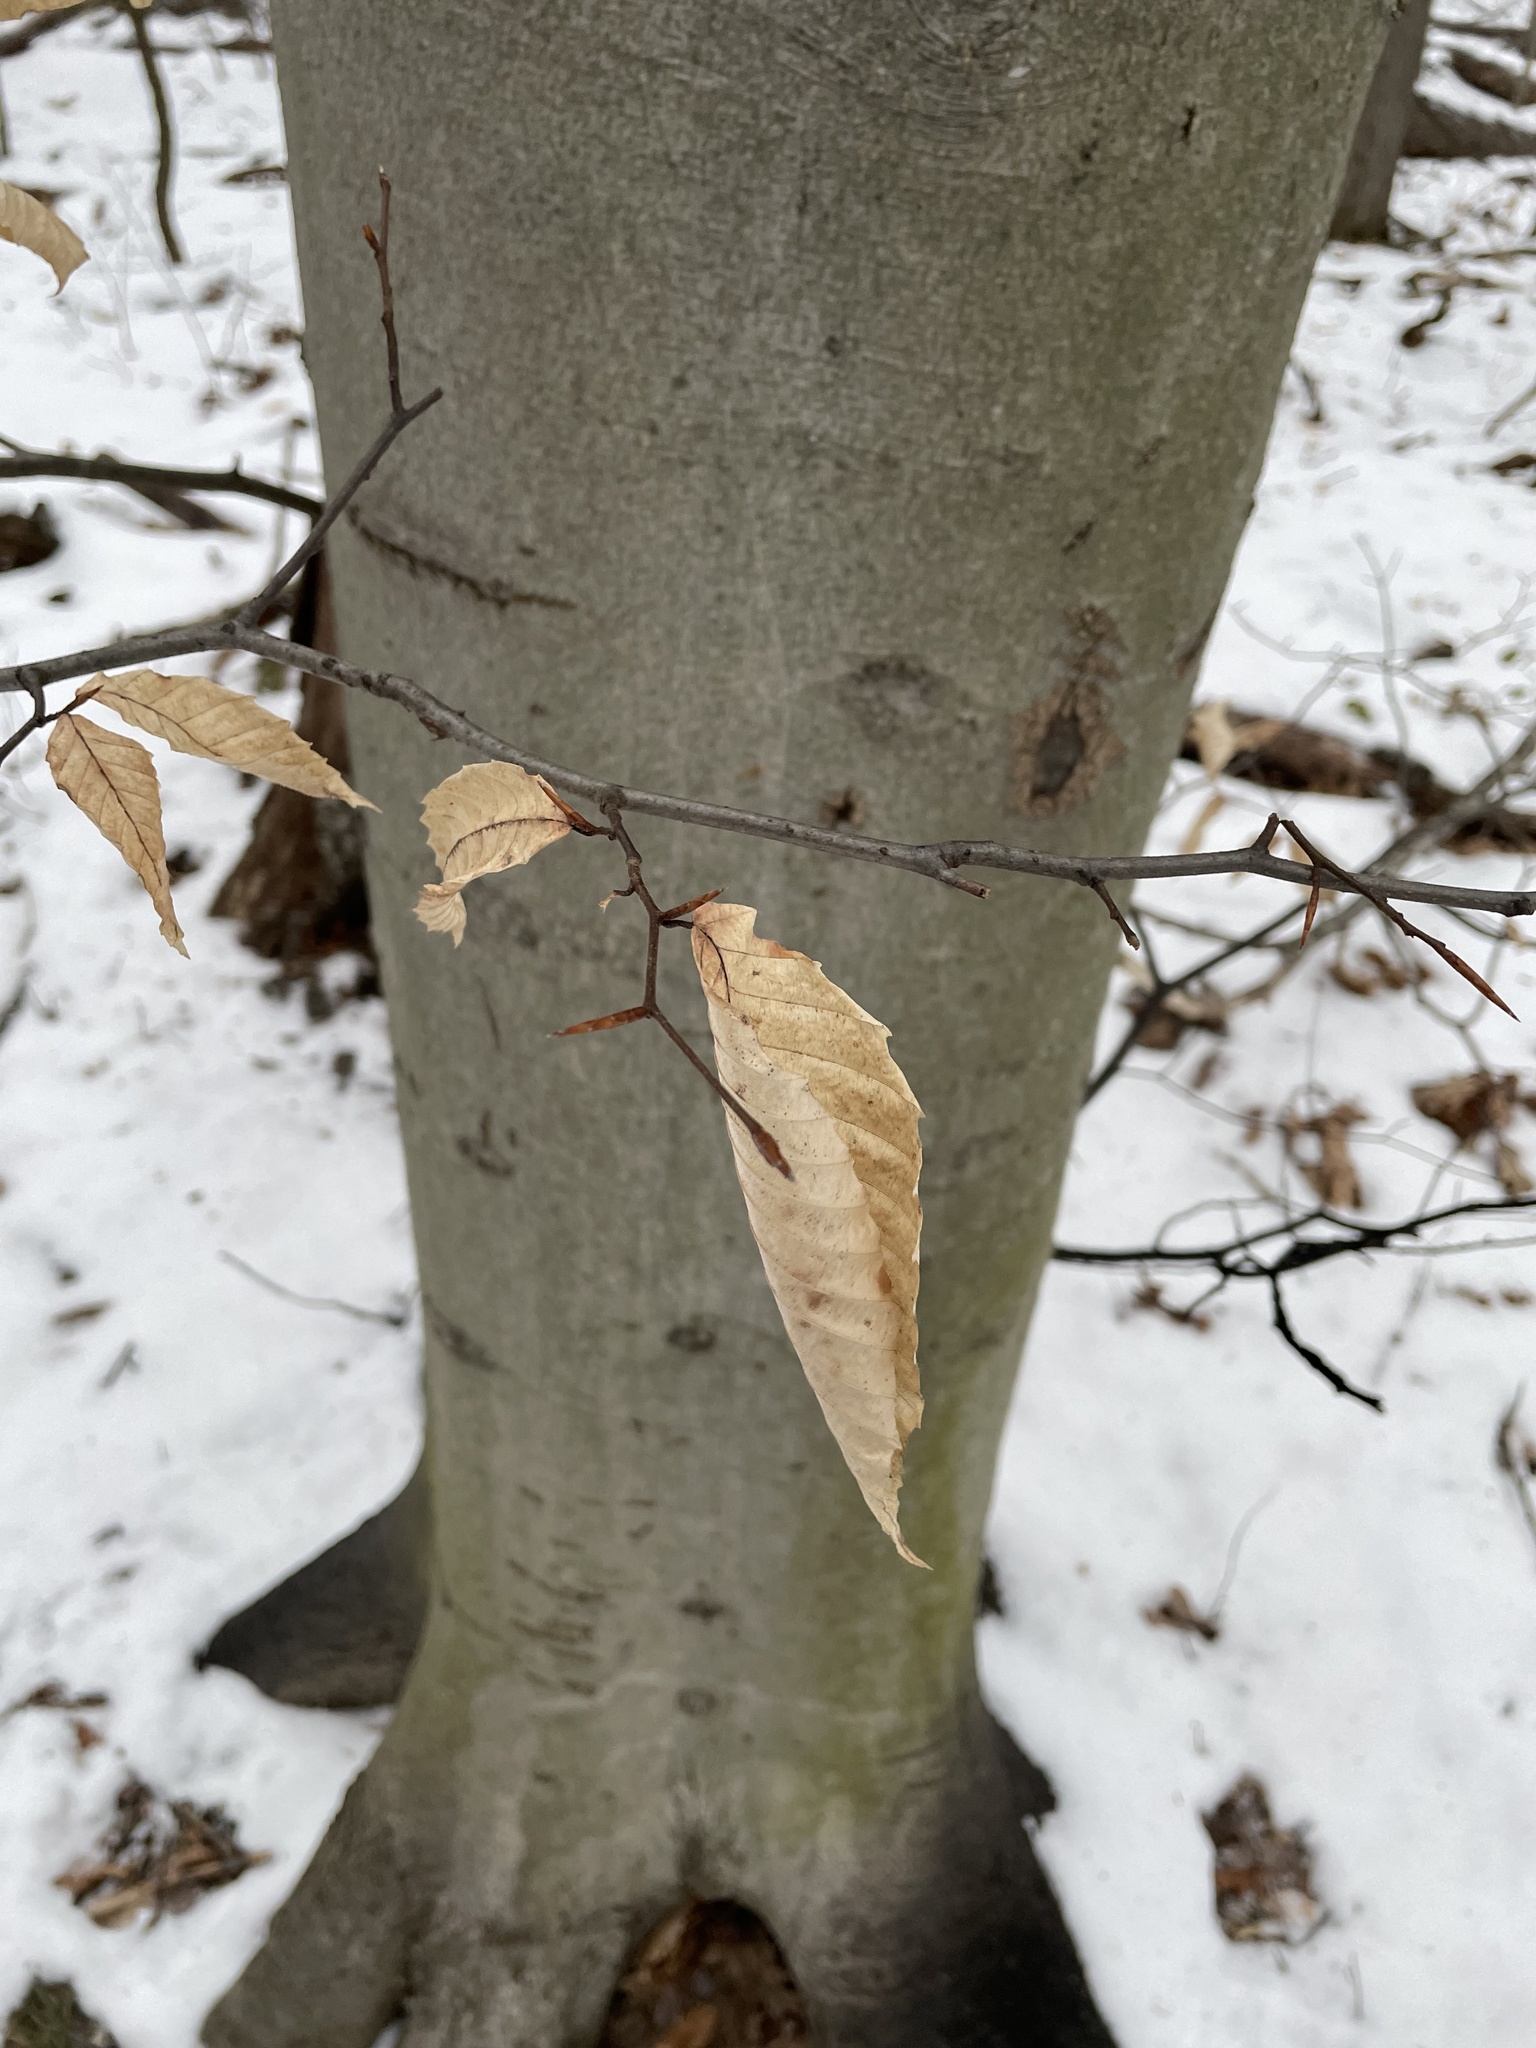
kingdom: Plantae
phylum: Tracheophyta
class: Magnoliopsida
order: Fagales
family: Fagaceae
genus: Fagus
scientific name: Fagus grandifolia
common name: American beech
